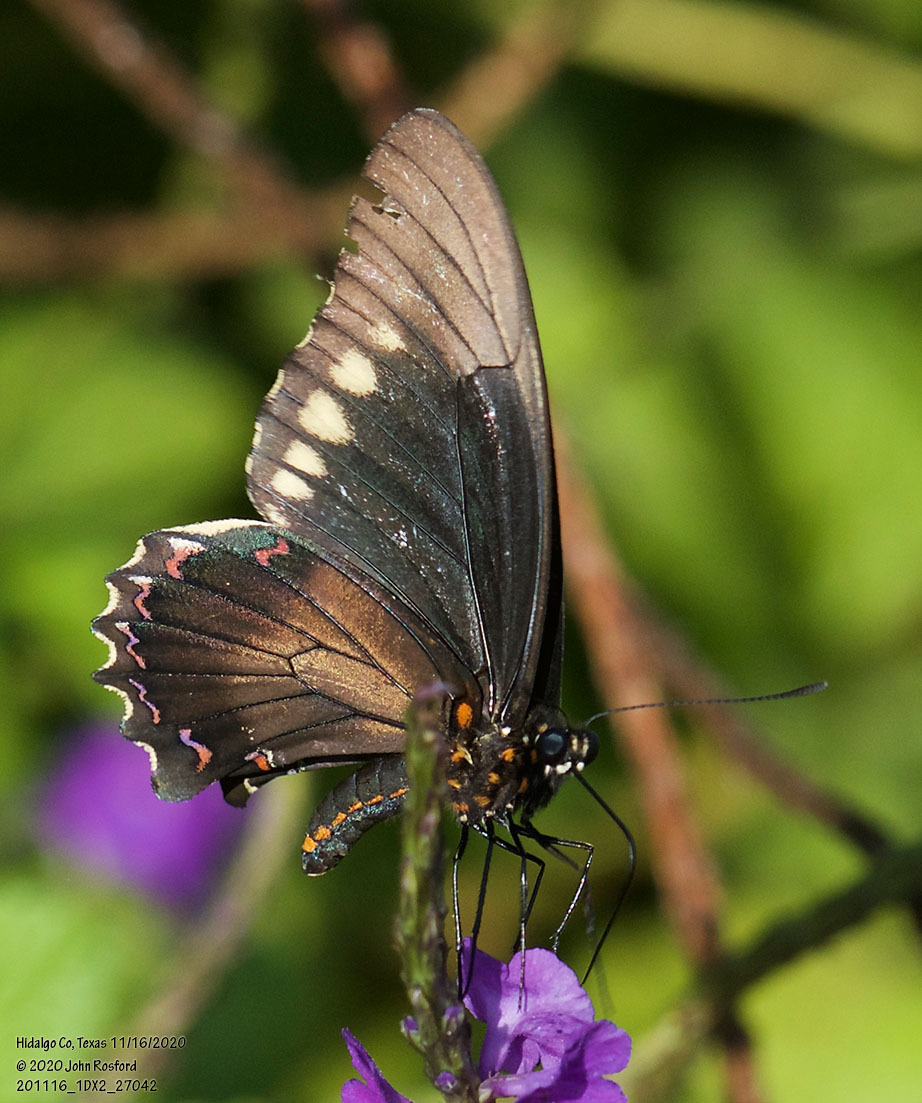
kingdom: Animalia
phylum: Arthropoda
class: Insecta
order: Lepidoptera
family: Papilionidae
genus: Battus
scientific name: Battus polydamas
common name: Polydamas swallowtail
